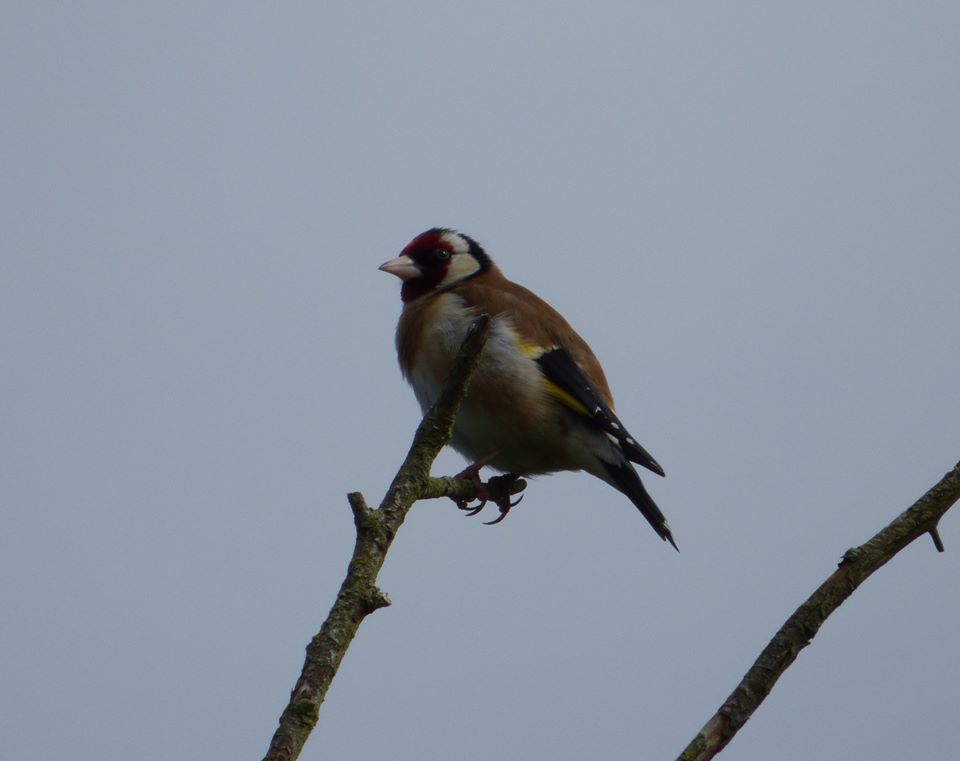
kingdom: Animalia
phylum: Chordata
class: Aves
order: Passeriformes
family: Fringillidae
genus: Carduelis
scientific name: Carduelis carduelis
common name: European goldfinch
